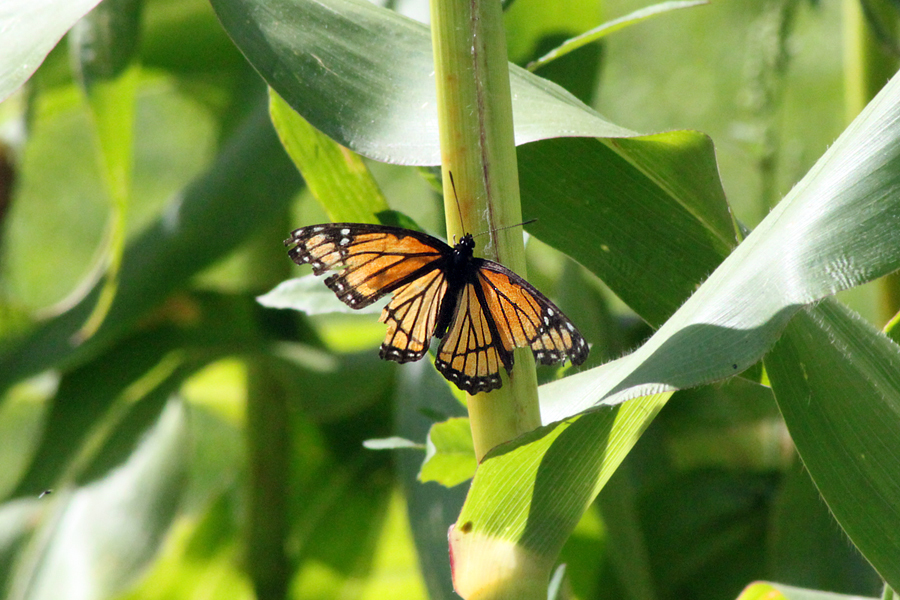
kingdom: Animalia
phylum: Arthropoda
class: Insecta
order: Lepidoptera
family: Nymphalidae
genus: Limenitis
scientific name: Limenitis archippus
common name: Viceroy
